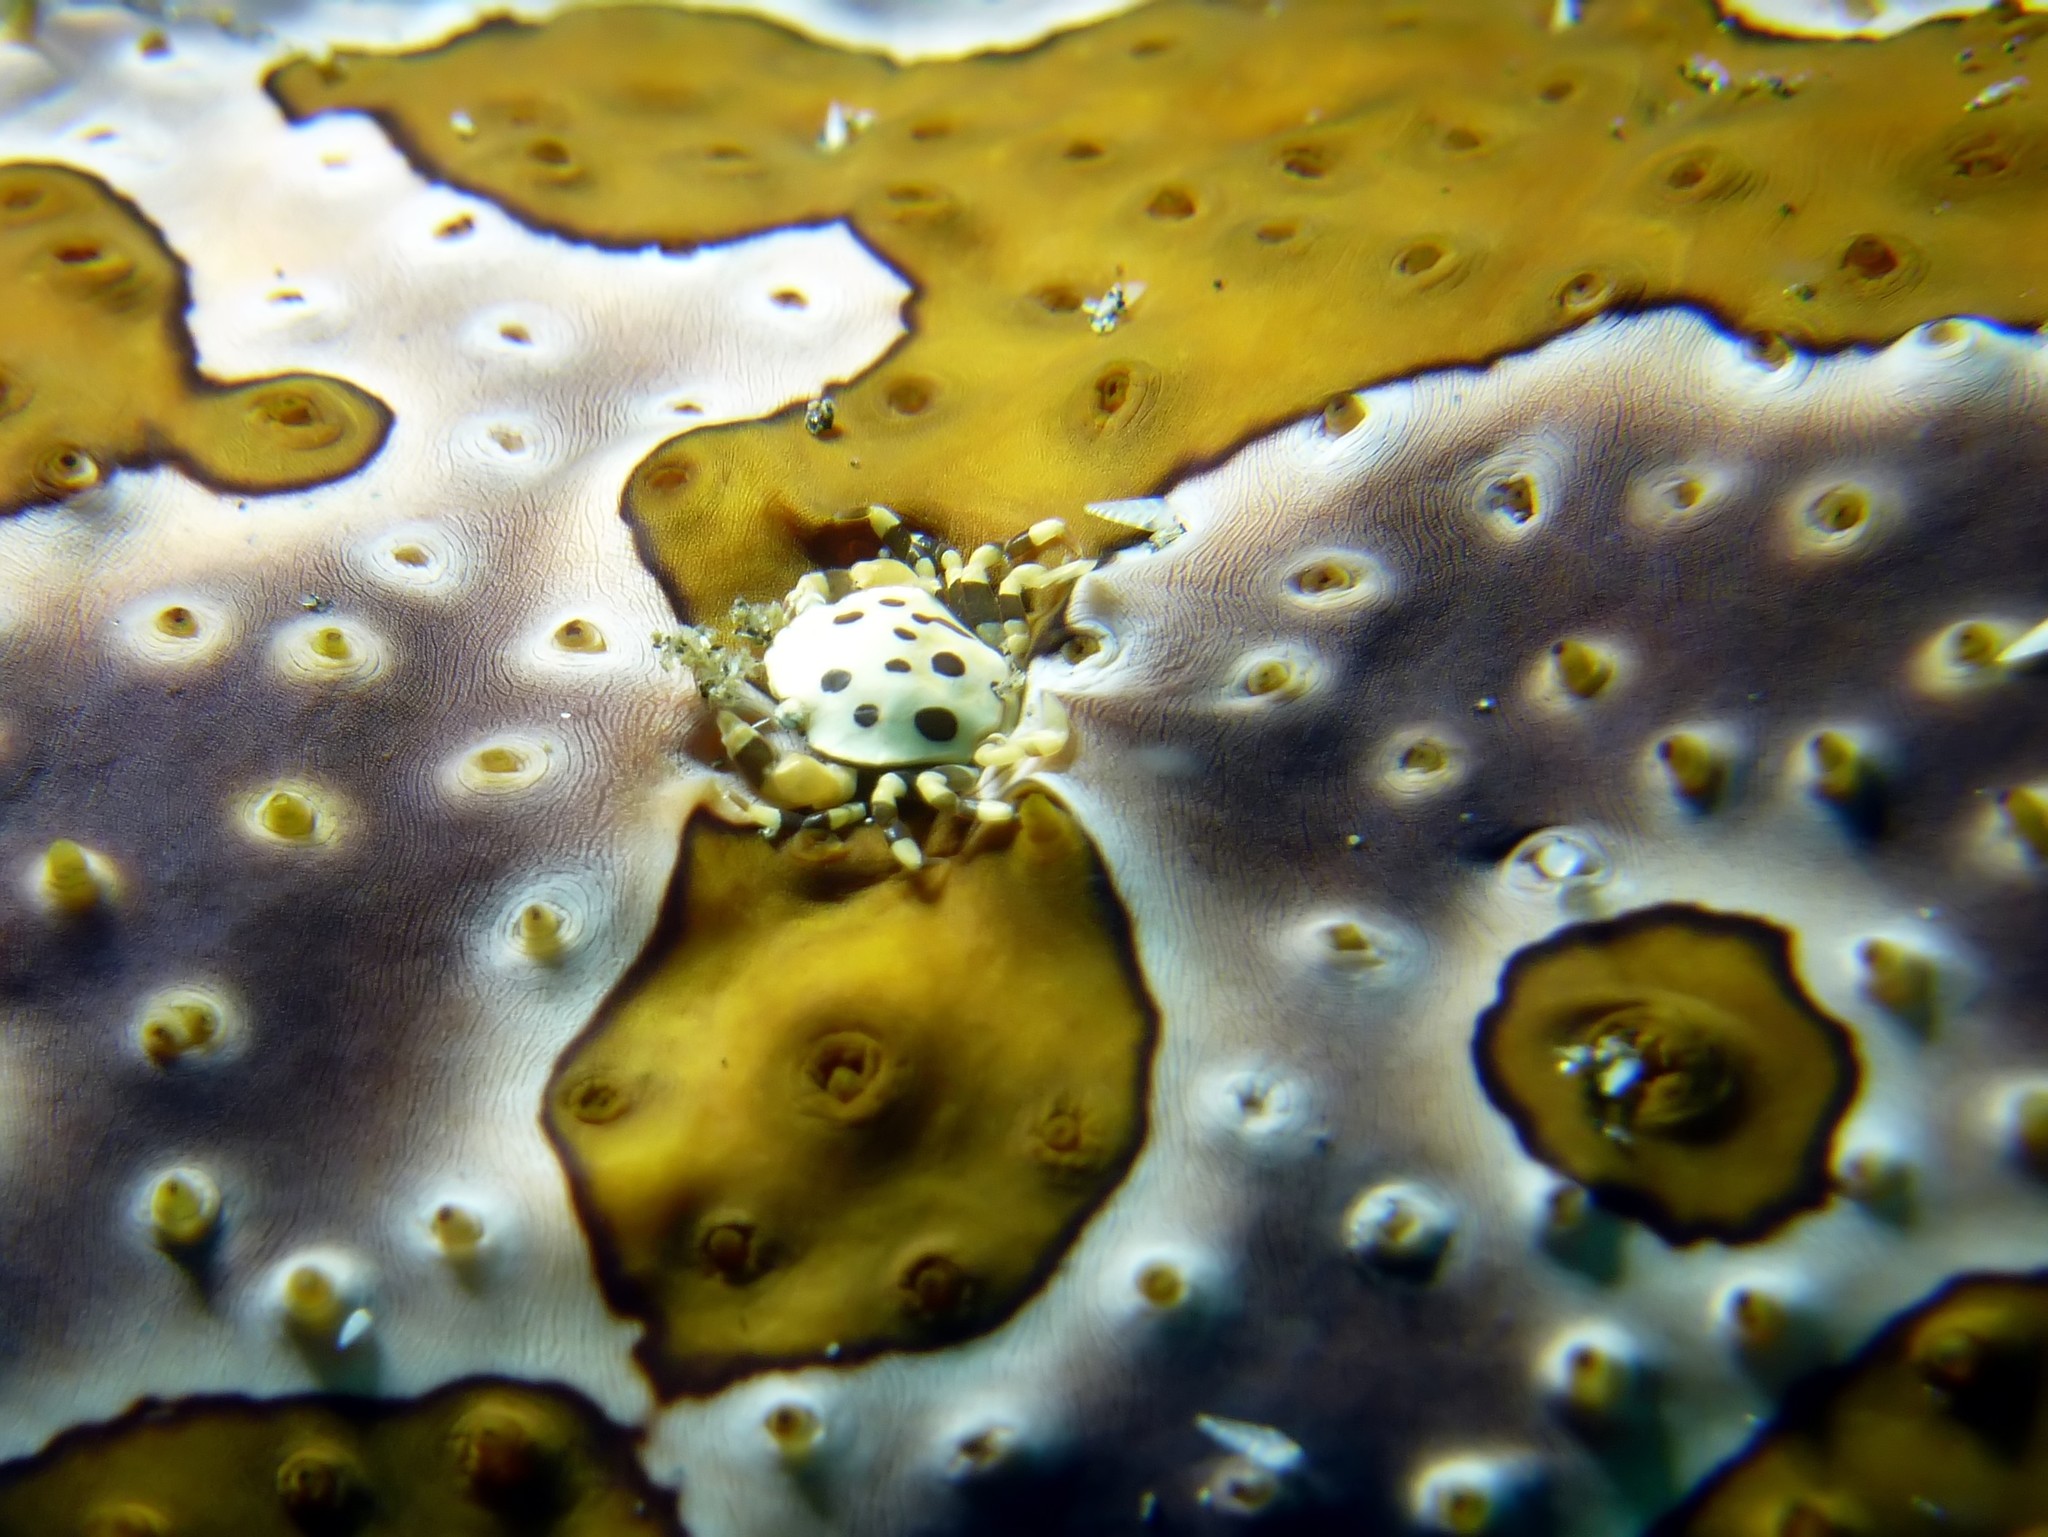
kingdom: Animalia
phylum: Arthropoda
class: Malacostraca
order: Decapoda
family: Portunidae
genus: Lissocarcinus
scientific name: Lissocarcinus orbicularis
